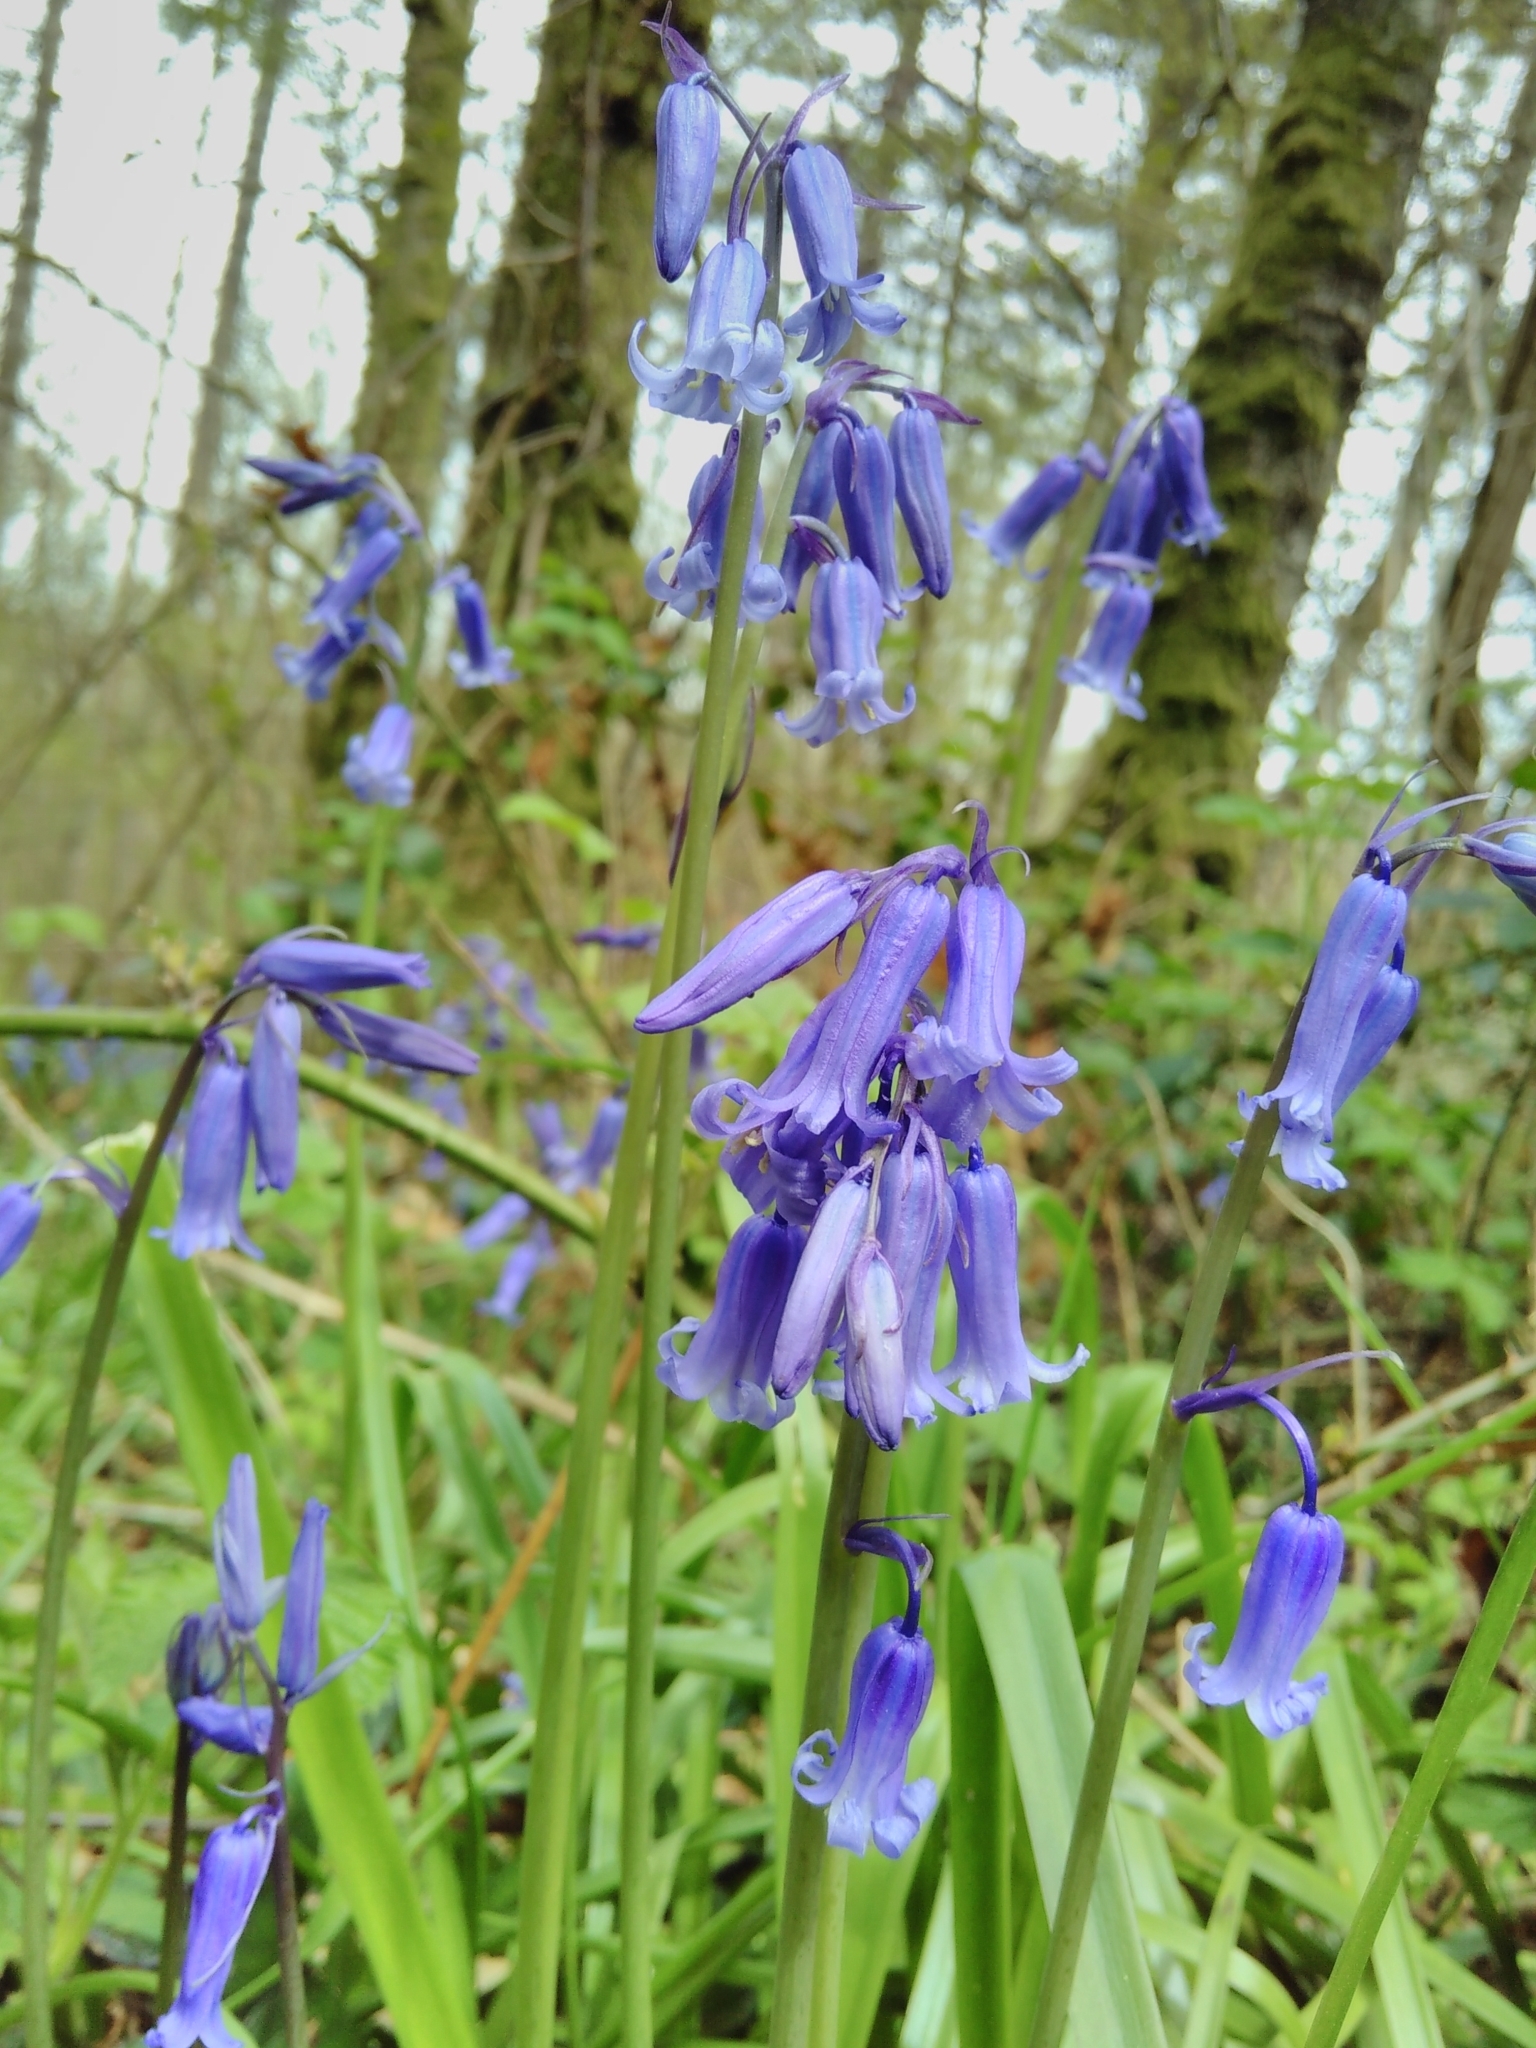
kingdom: Plantae
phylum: Tracheophyta
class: Liliopsida
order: Asparagales
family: Asparagaceae
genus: Hyacinthoides
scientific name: Hyacinthoides non-scripta
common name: Bluebell
